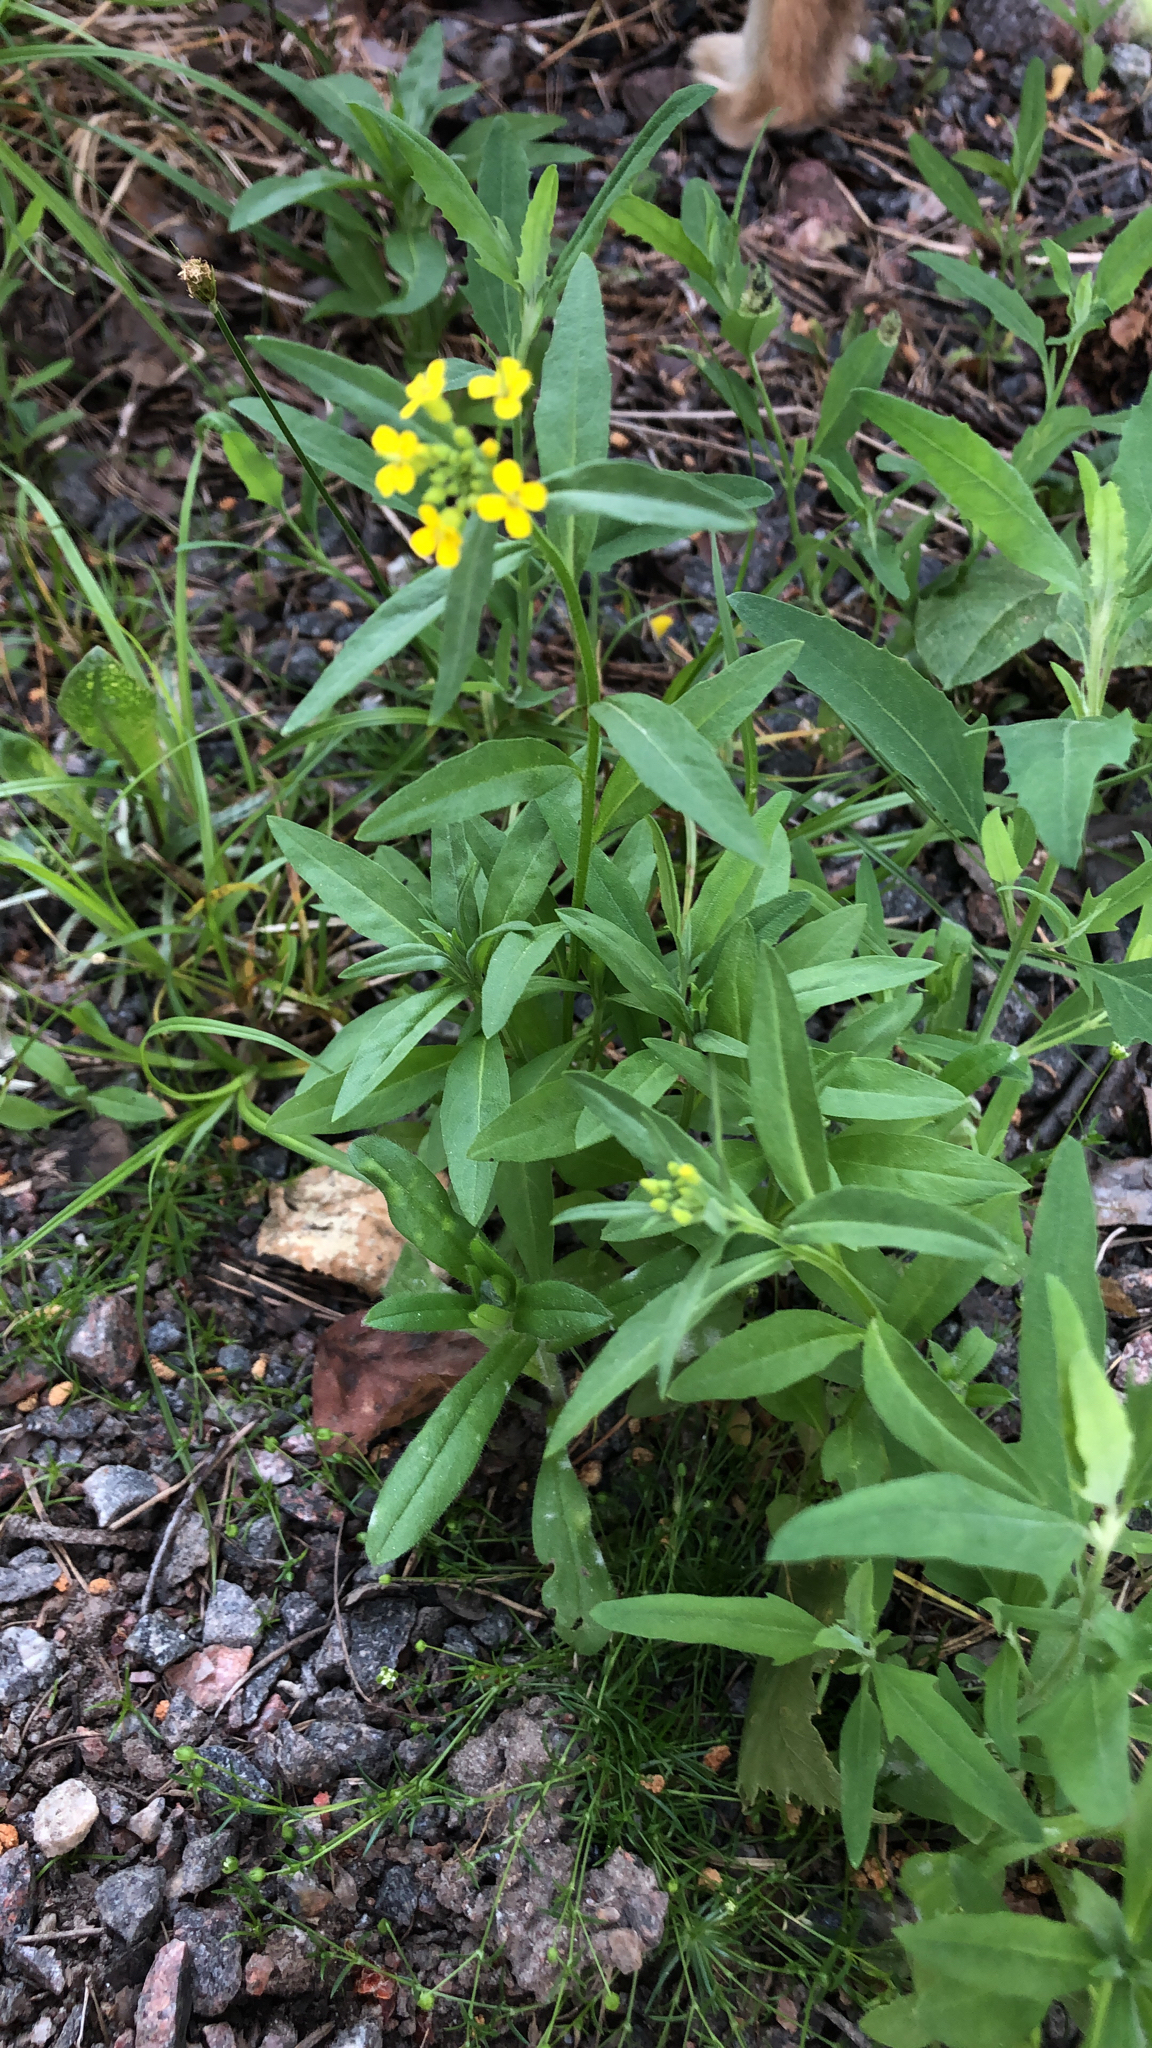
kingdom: Plantae
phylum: Tracheophyta
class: Magnoliopsida
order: Brassicales
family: Brassicaceae
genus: Erysimum
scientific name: Erysimum cheiranthoides
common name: Treacle mustard
